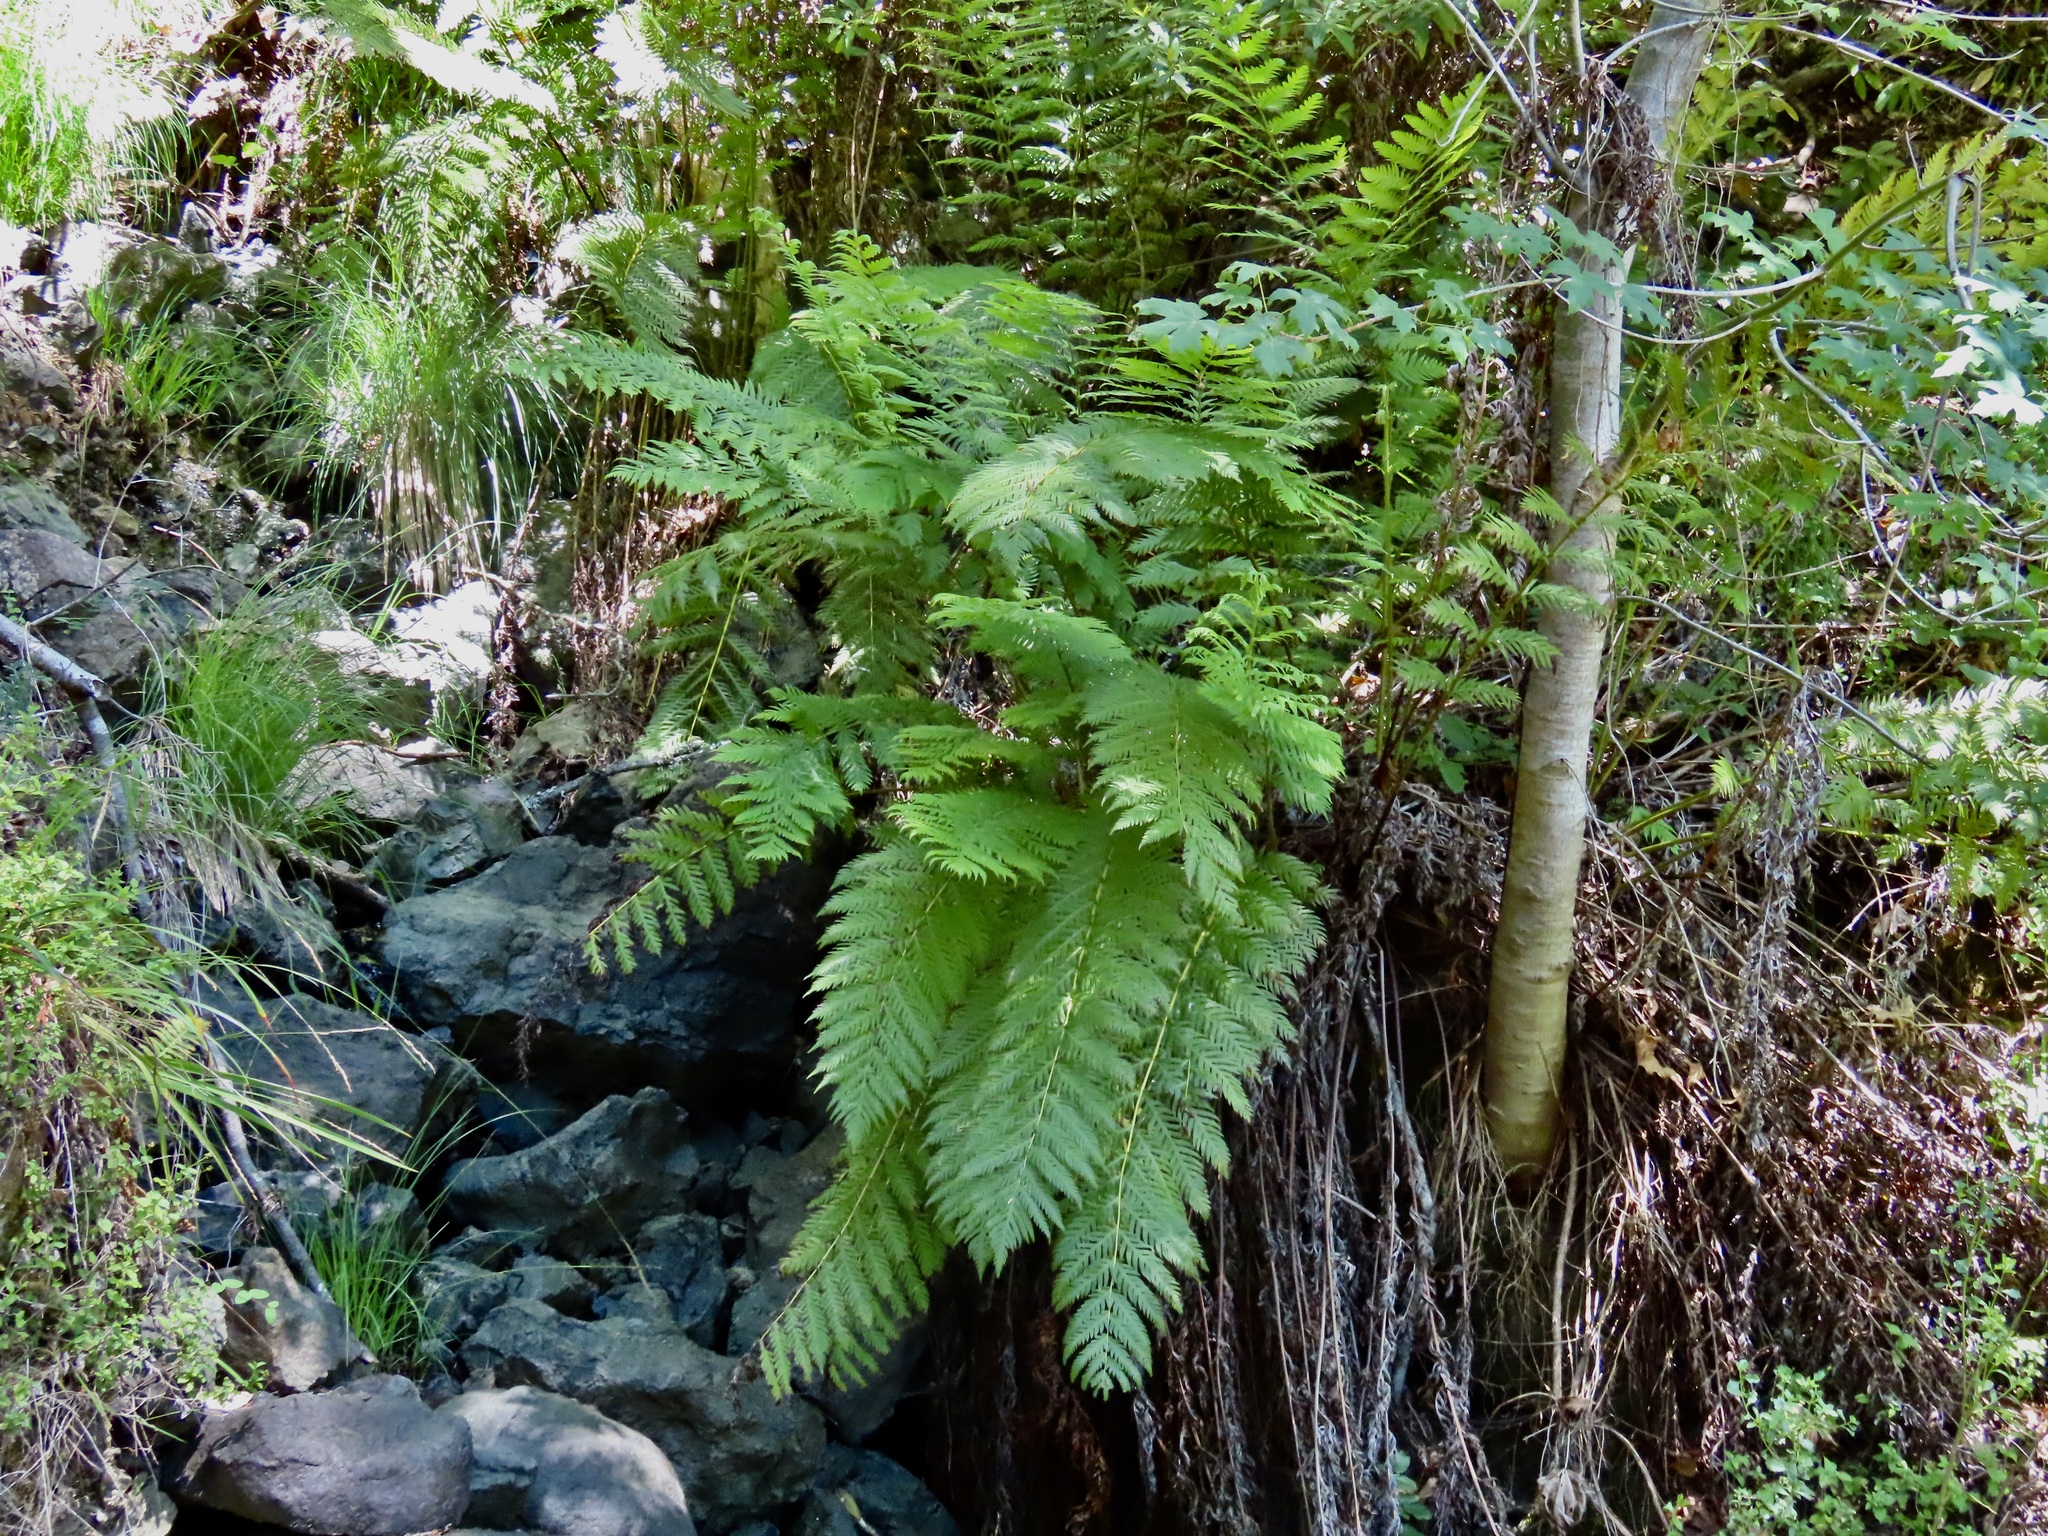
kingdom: Plantae
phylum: Tracheophyta
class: Polypodiopsida
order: Polypodiales
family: Blechnaceae
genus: Woodwardia
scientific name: Woodwardia fimbriata
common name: Giant chain fern
